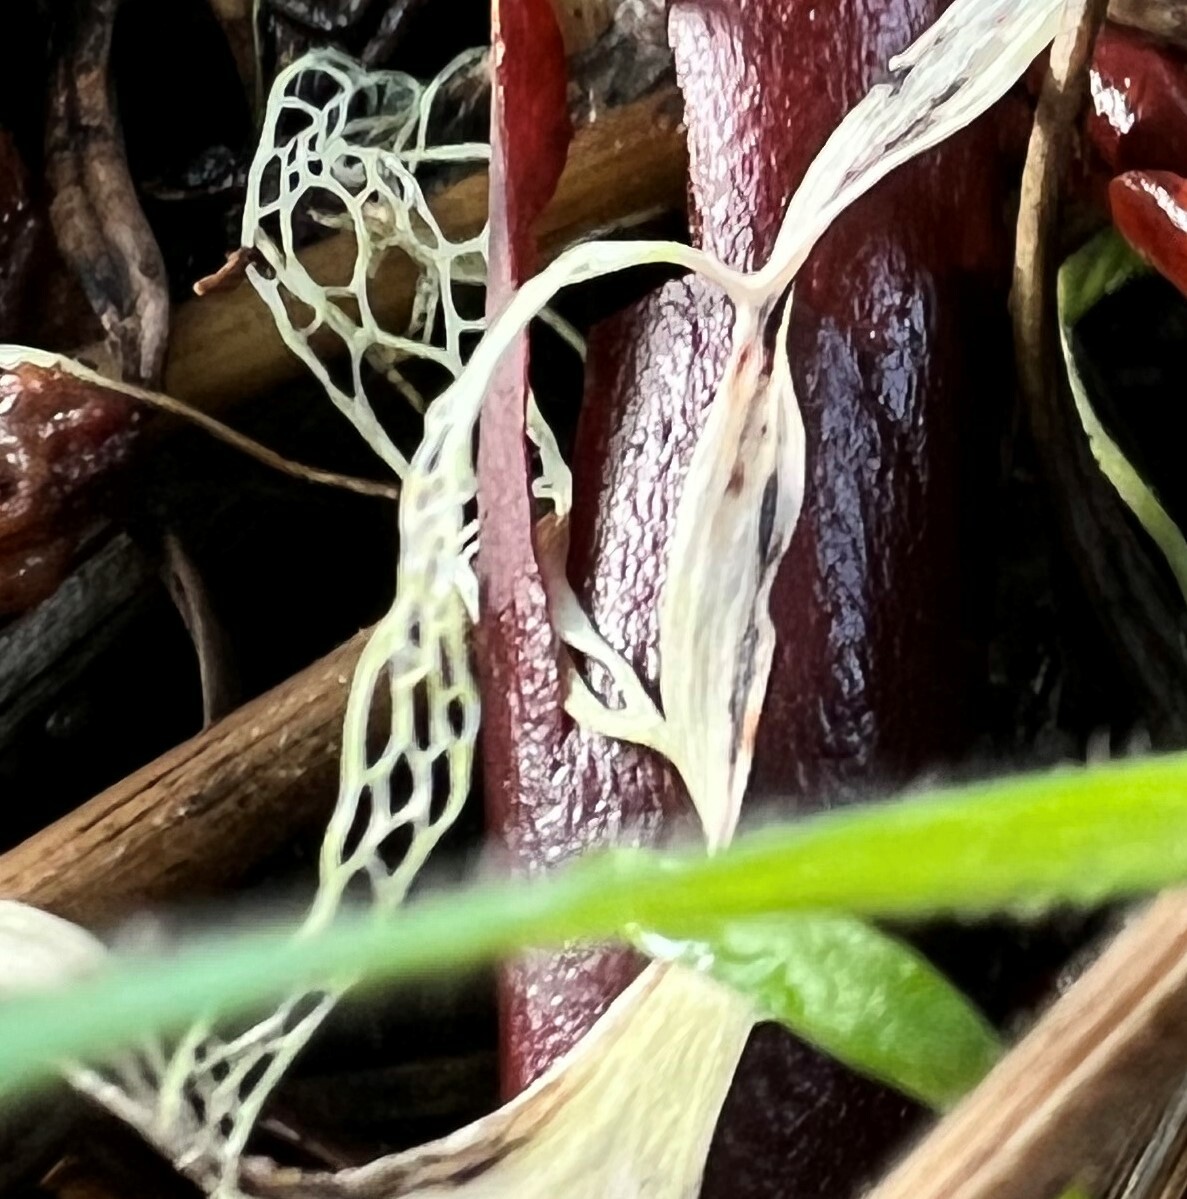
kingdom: Fungi
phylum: Ascomycota
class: Lecanoromycetes
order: Lecanorales
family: Ramalinaceae
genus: Ramalina
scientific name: Ramalina menziesii
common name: Lace lichen
